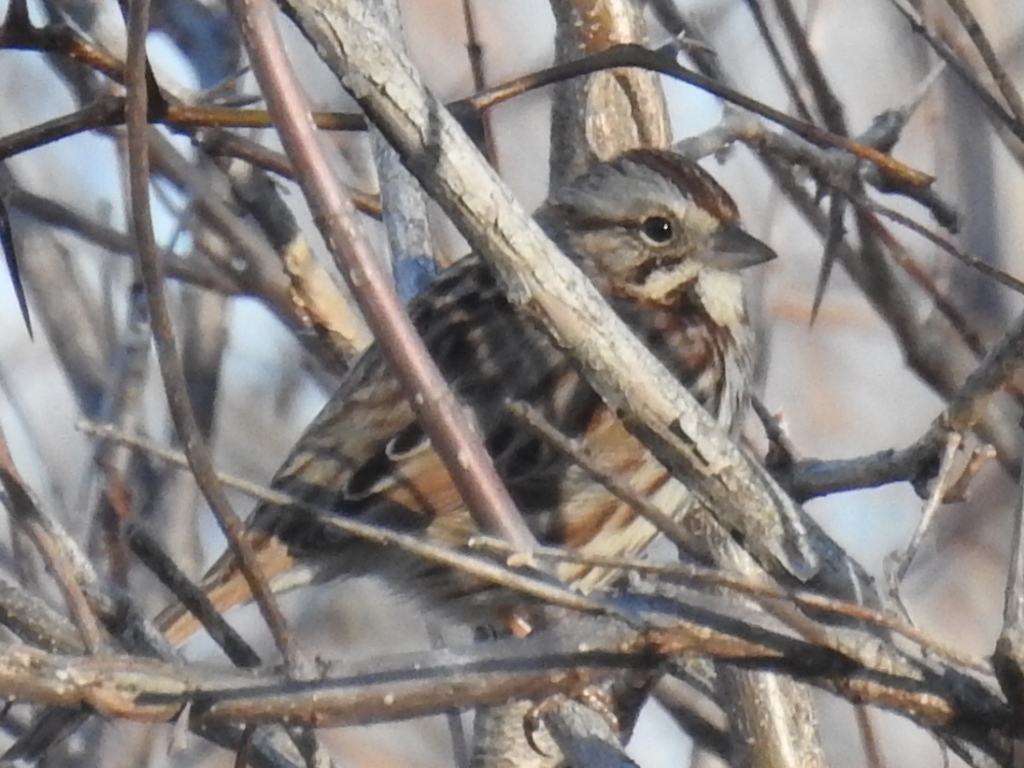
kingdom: Animalia
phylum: Chordata
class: Aves
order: Passeriformes
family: Passerellidae
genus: Melospiza
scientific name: Melospiza melodia
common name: Song sparrow
